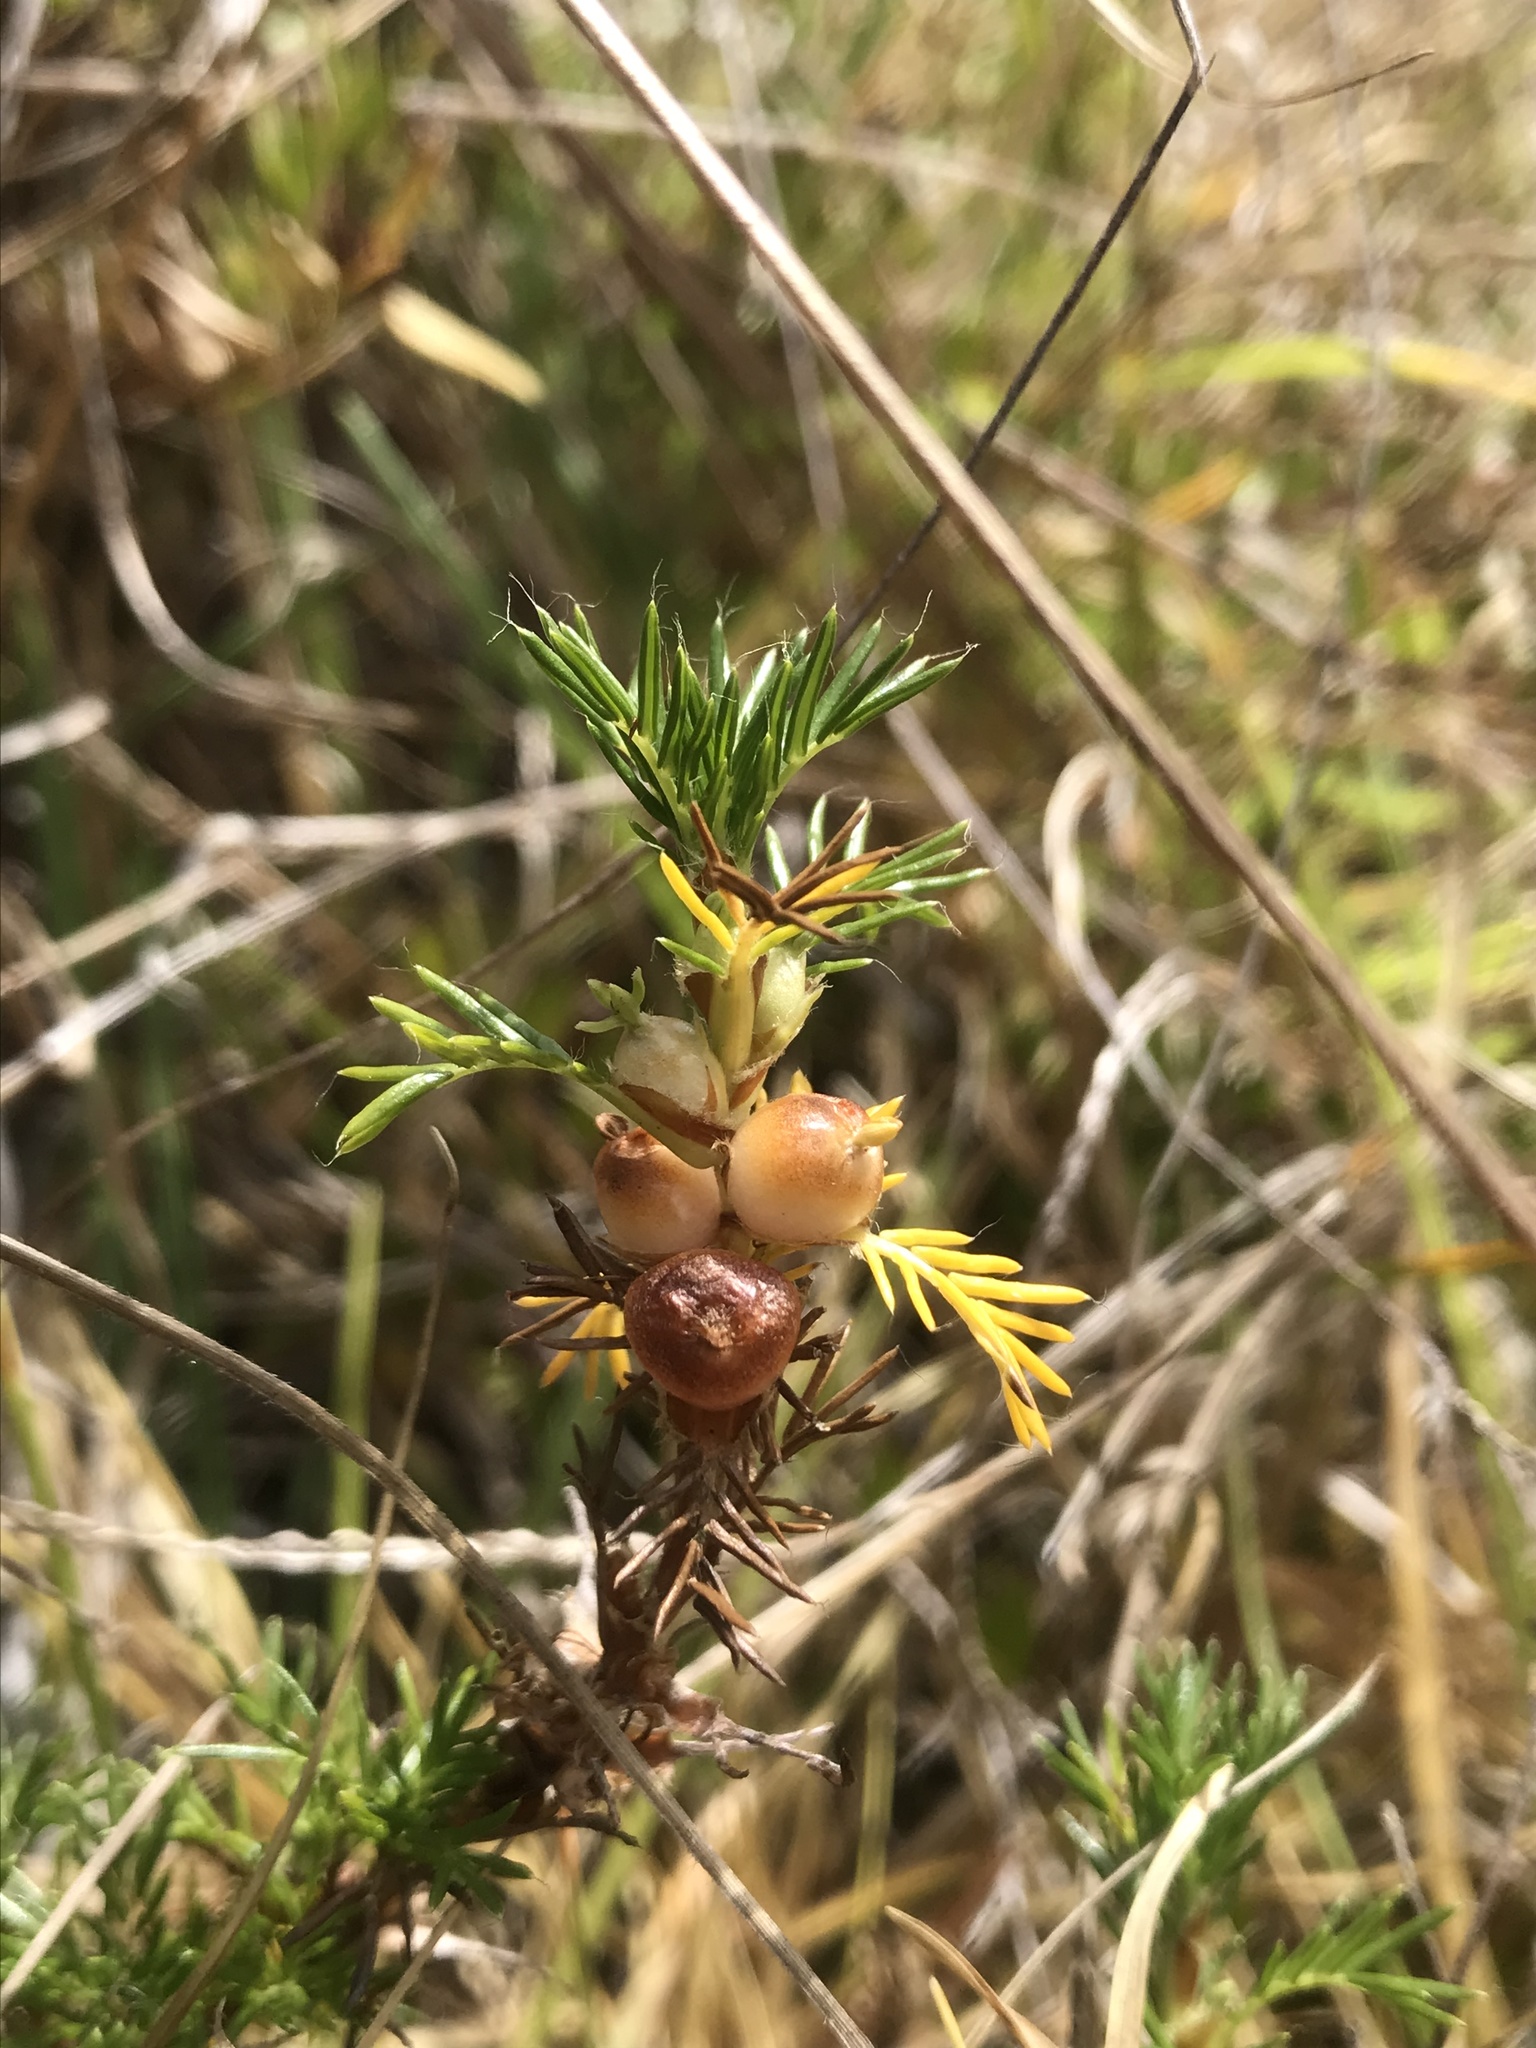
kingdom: Plantae
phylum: Tracheophyta
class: Magnoliopsida
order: Rosales
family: Rosaceae
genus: Margyricarpus
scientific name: Margyricarpus pinnatus
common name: Pearlfruit
